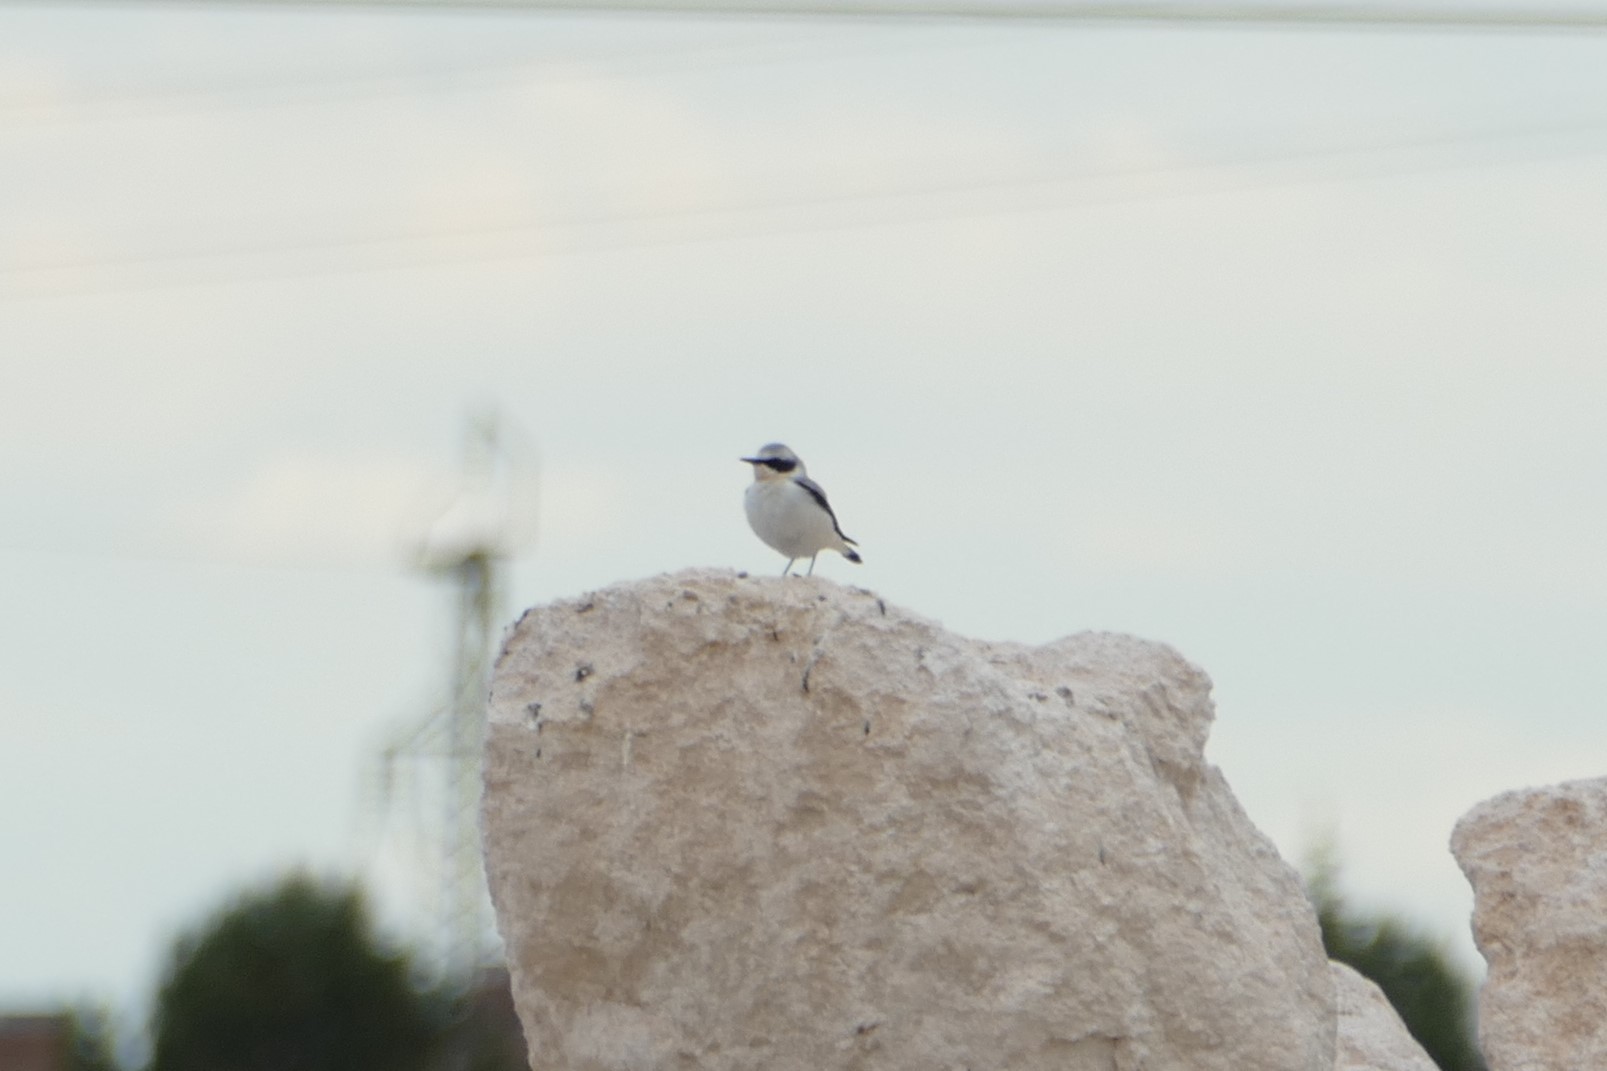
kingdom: Animalia
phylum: Chordata
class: Aves
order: Passeriformes
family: Muscicapidae
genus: Oenanthe
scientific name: Oenanthe oenanthe
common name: Northern wheatear
